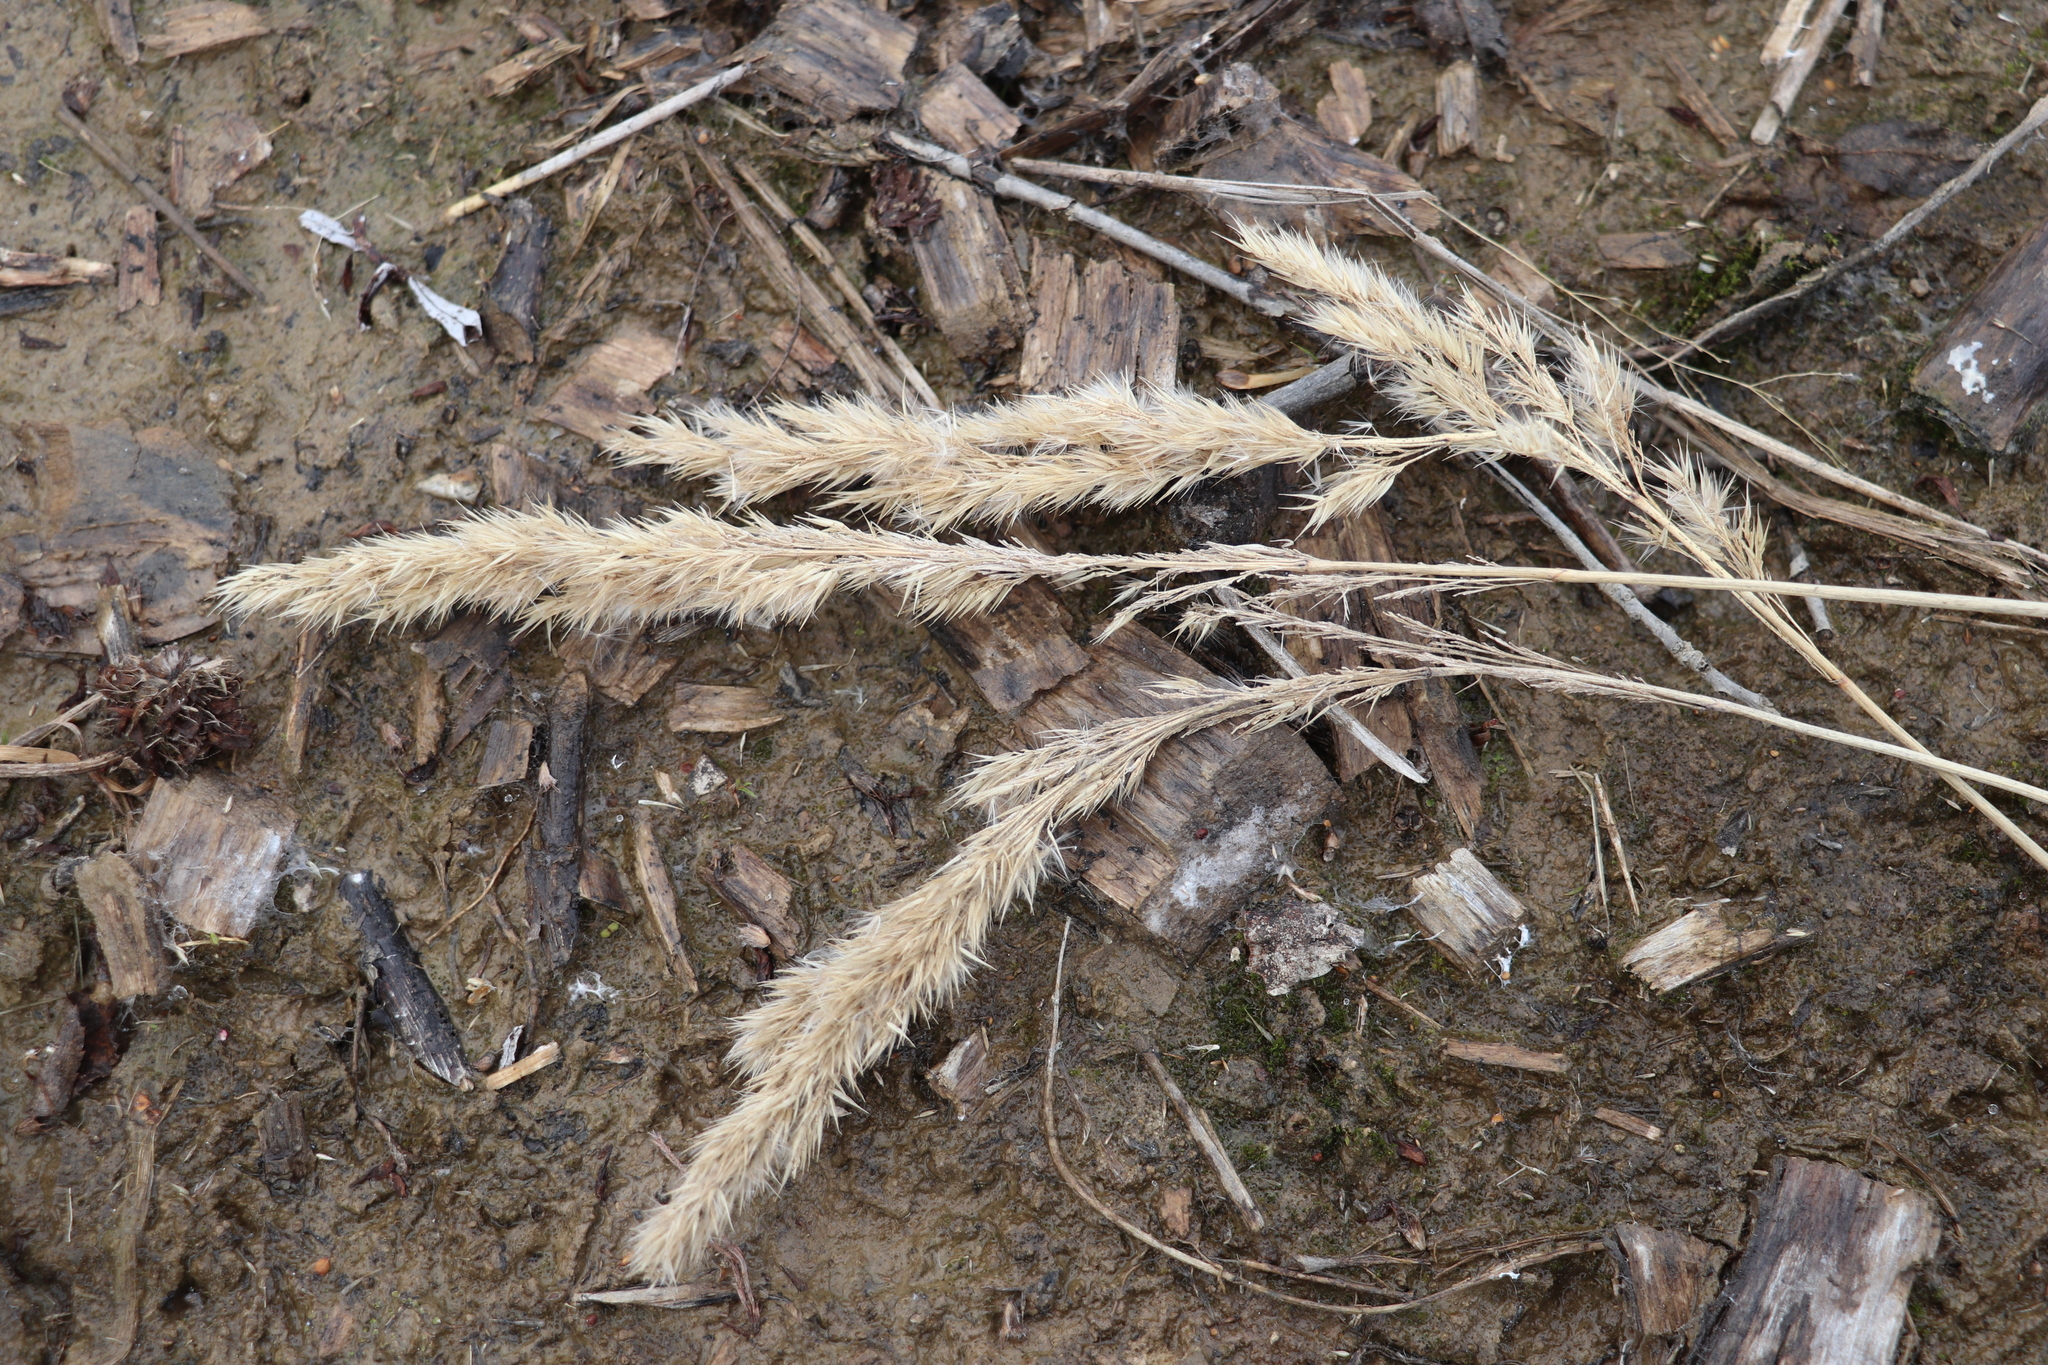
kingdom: Plantae
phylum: Tracheophyta
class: Liliopsida
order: Poales
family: Poaceae
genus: Calamagrostis
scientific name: Calamagrostis epigejos
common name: Wood small-reed
